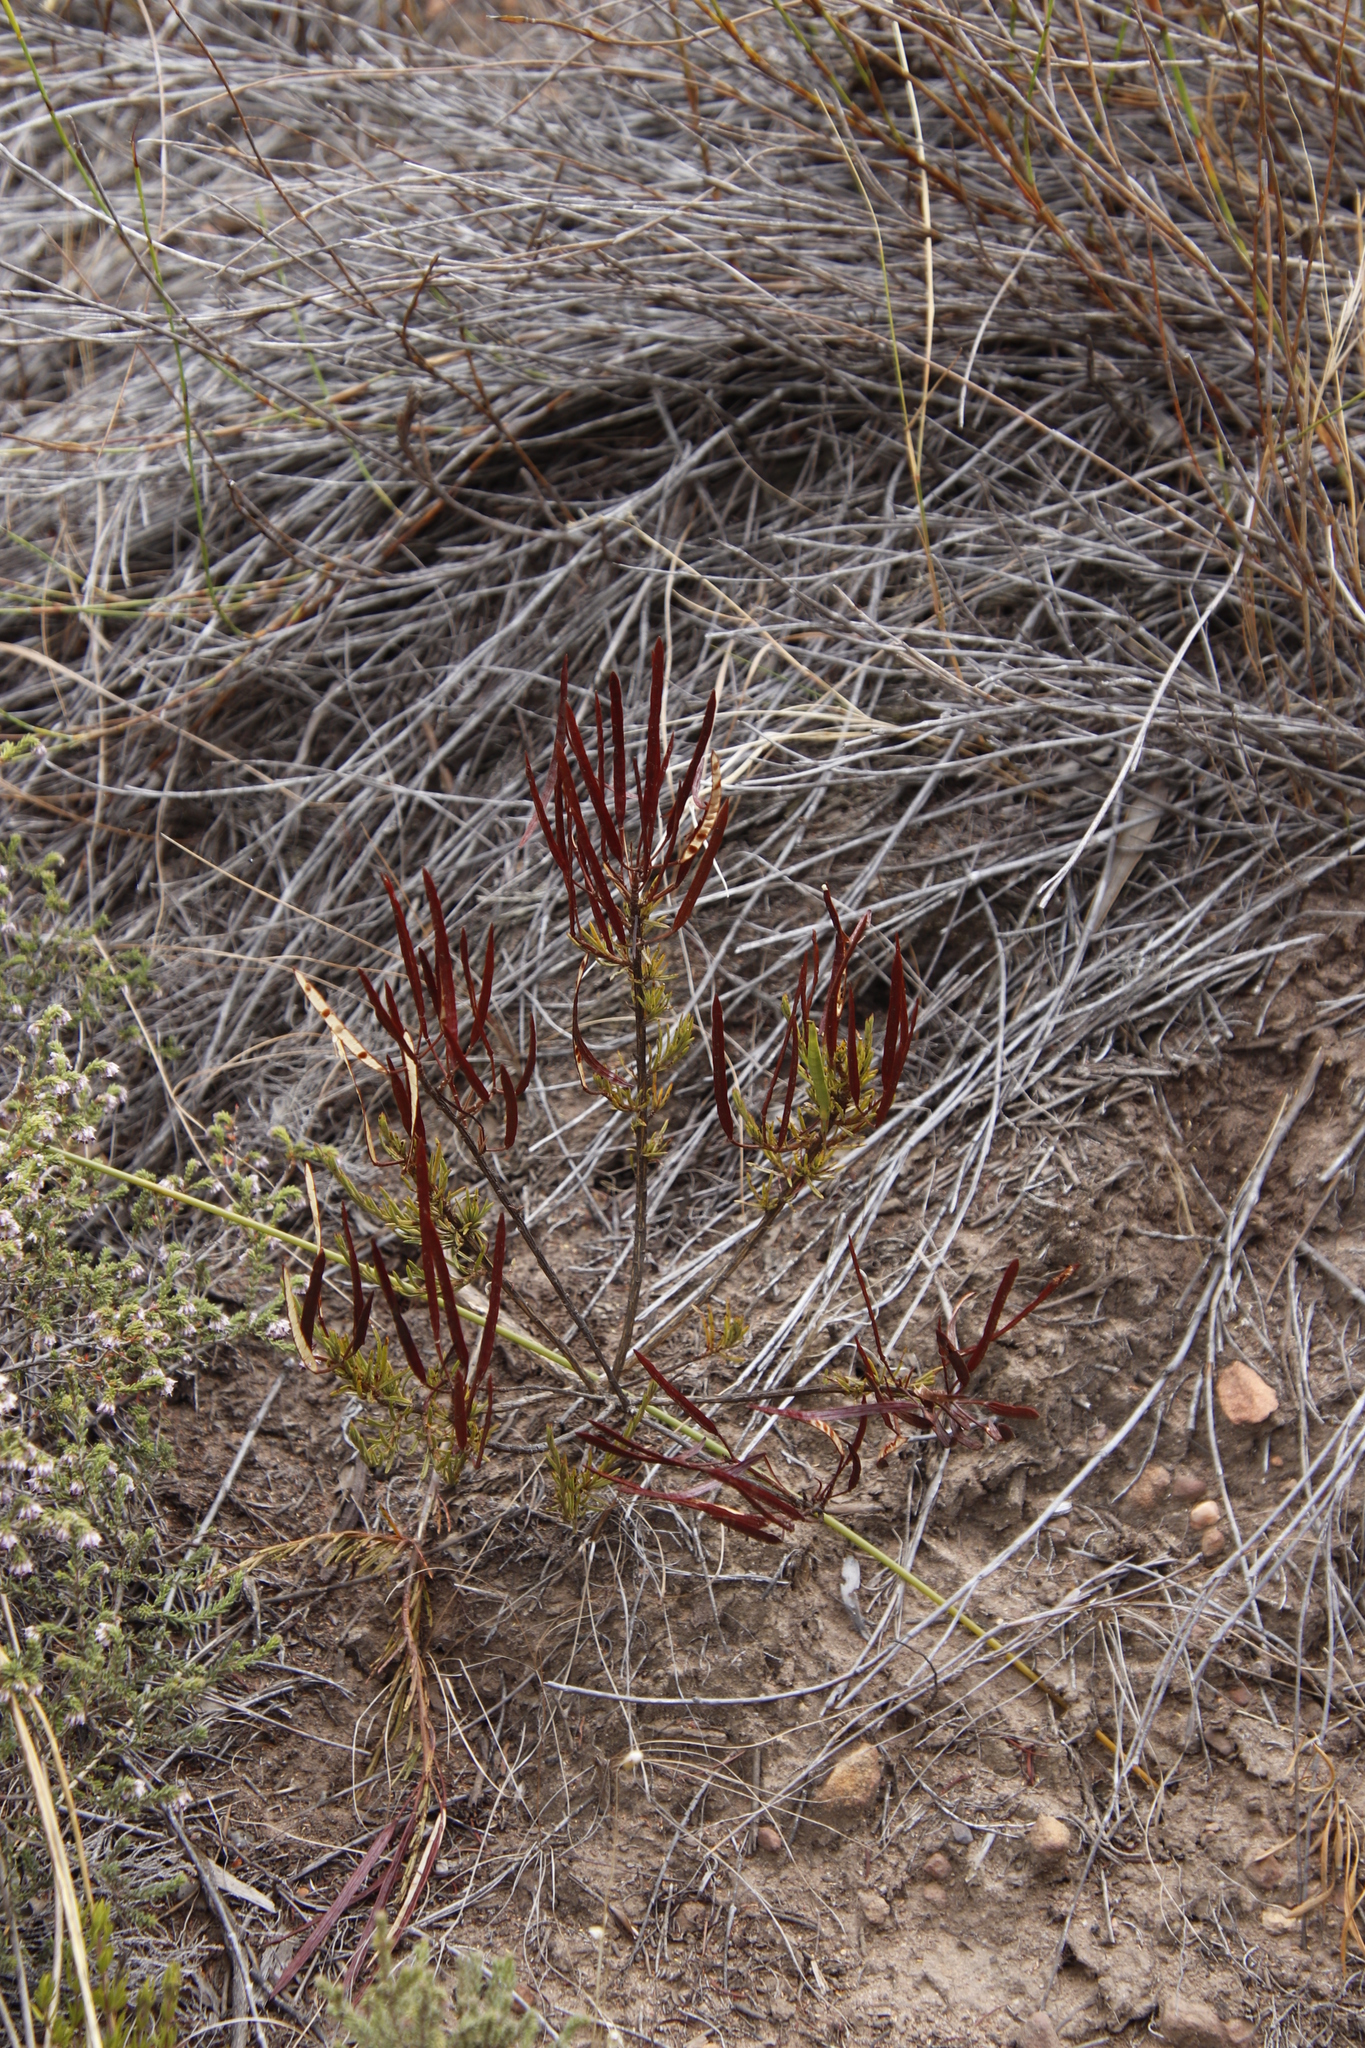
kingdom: Plantae
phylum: Tracheophyta
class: Magnoliopsida
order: Brassicales
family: Brassicaceae
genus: Heliophila
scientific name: Heliophila scoparia
